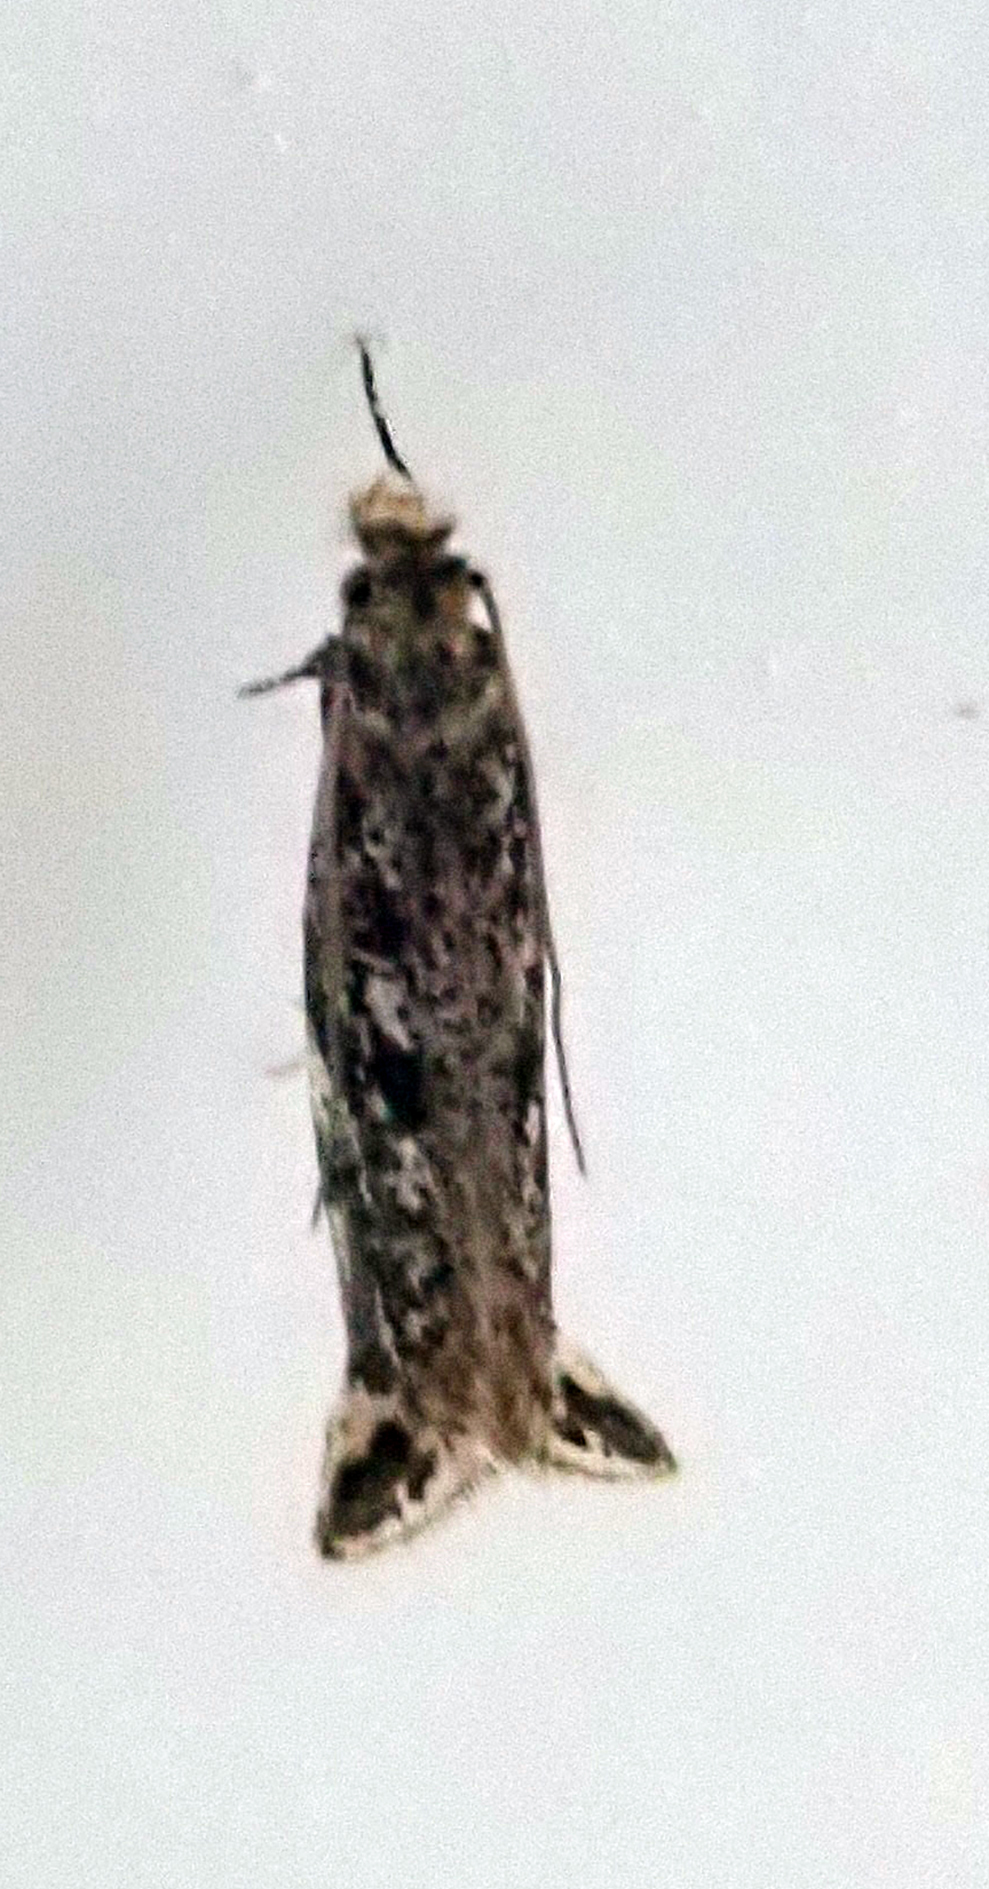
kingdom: Animalia
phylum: Arthropoda
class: Insecta
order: Lepidoptera
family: Tineidae
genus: Erechthias
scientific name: Erechthias acrodina
